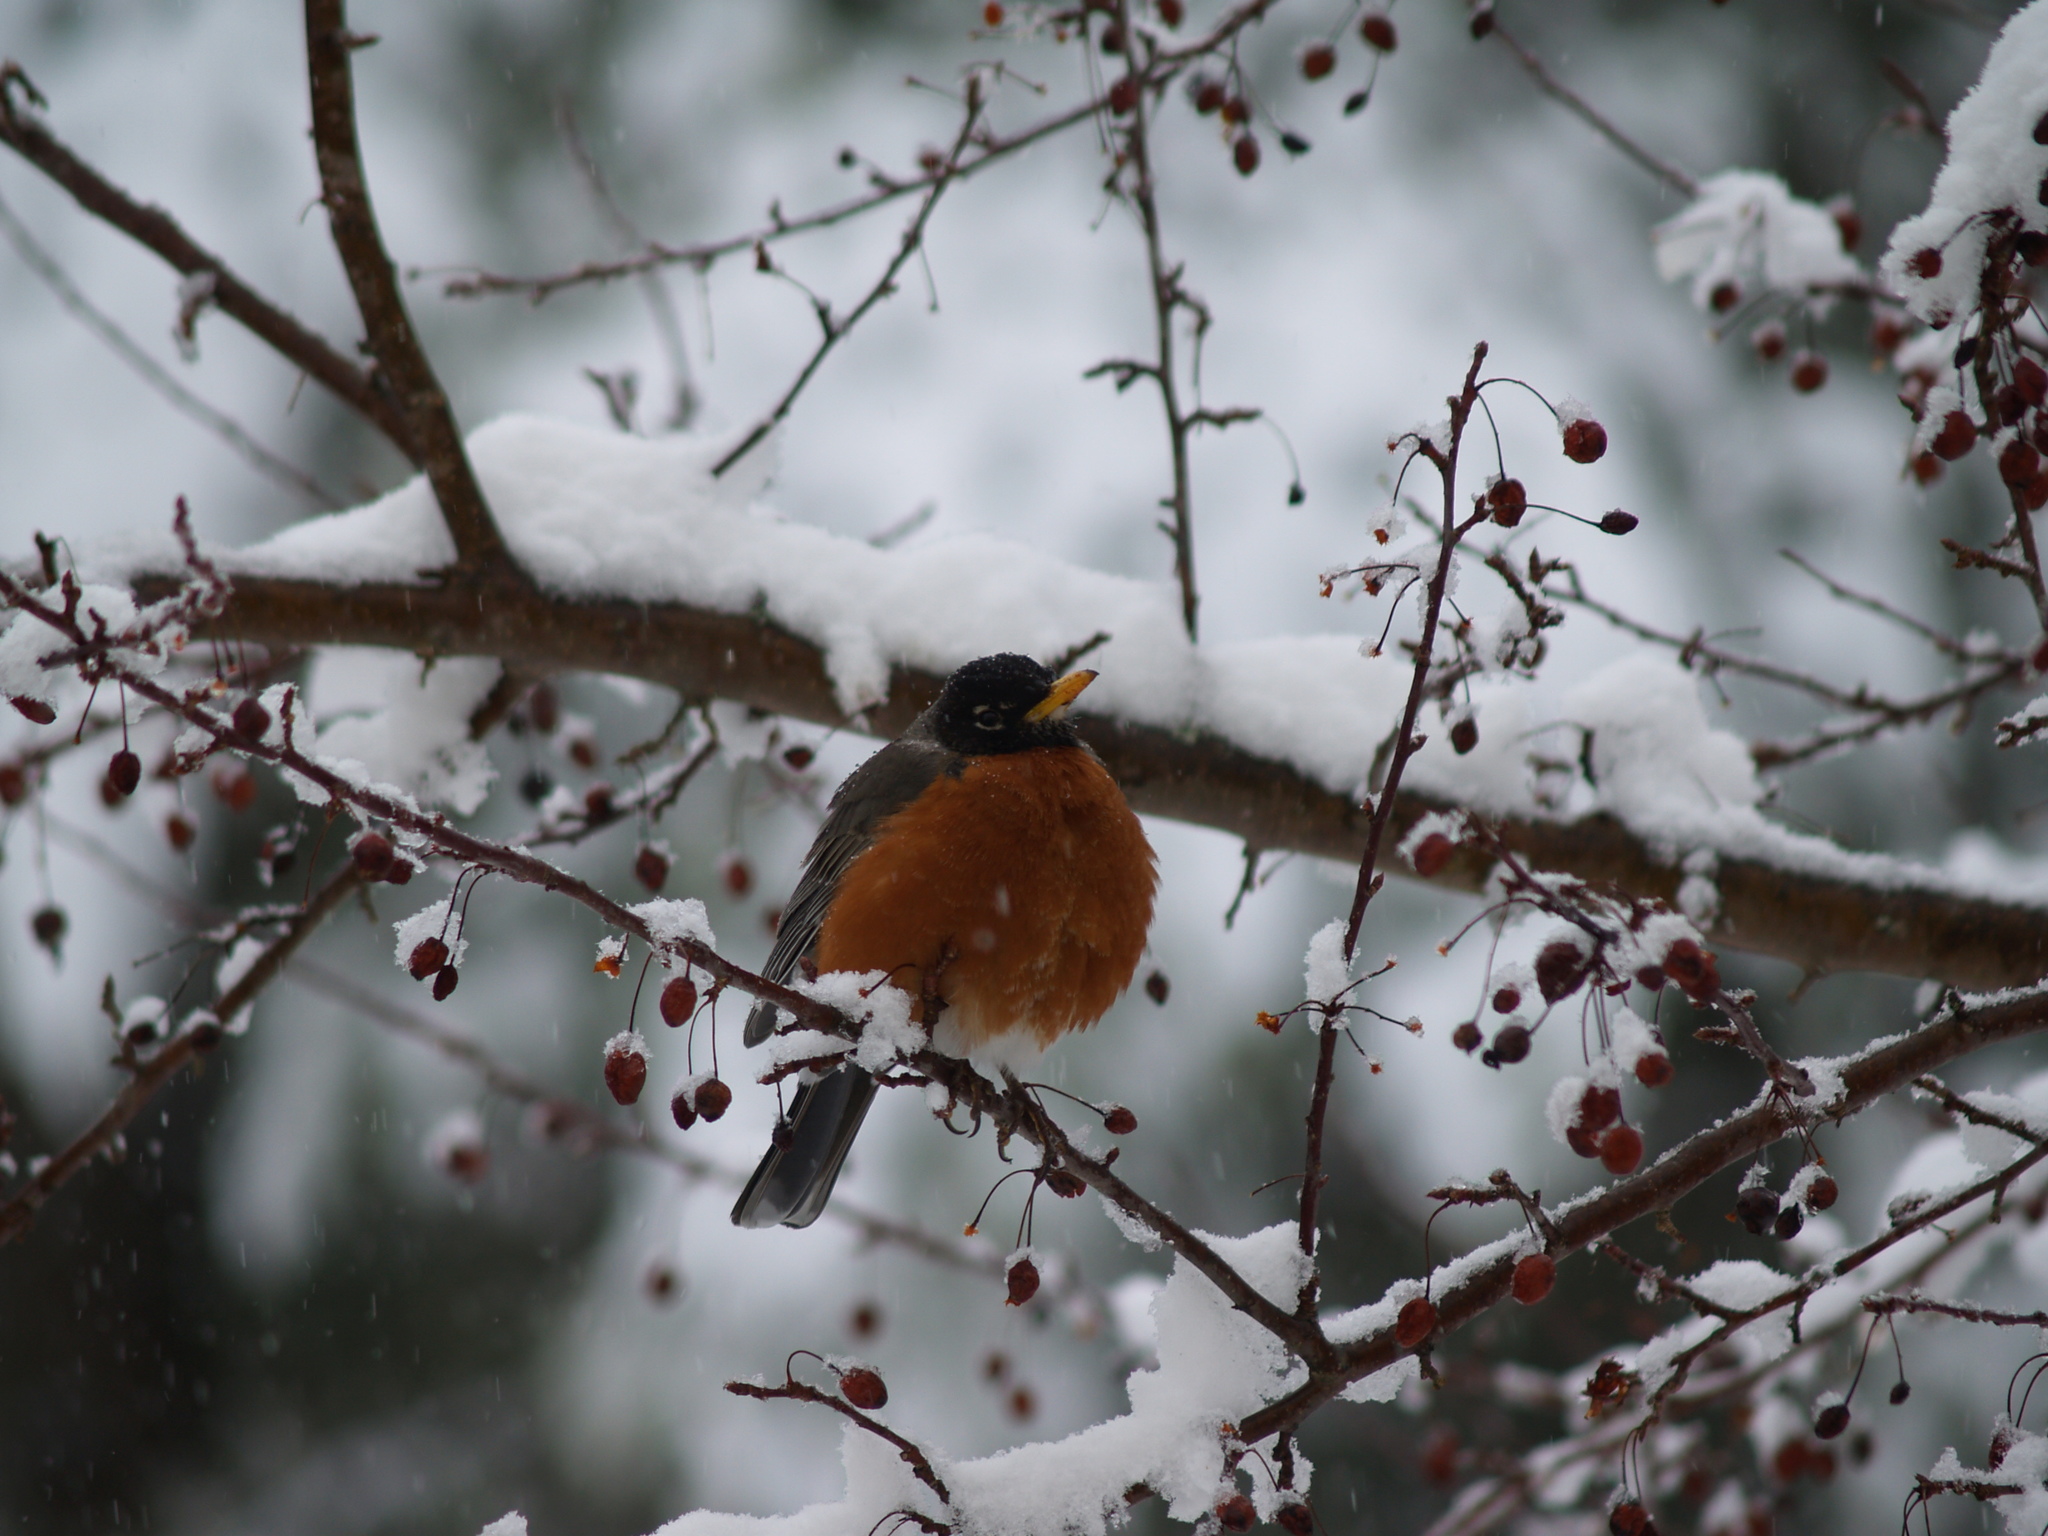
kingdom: Animalia
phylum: Chordata
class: Aves
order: Passeriformes
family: Turdidae
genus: Turdus
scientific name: Turdus migratorius
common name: American robin
